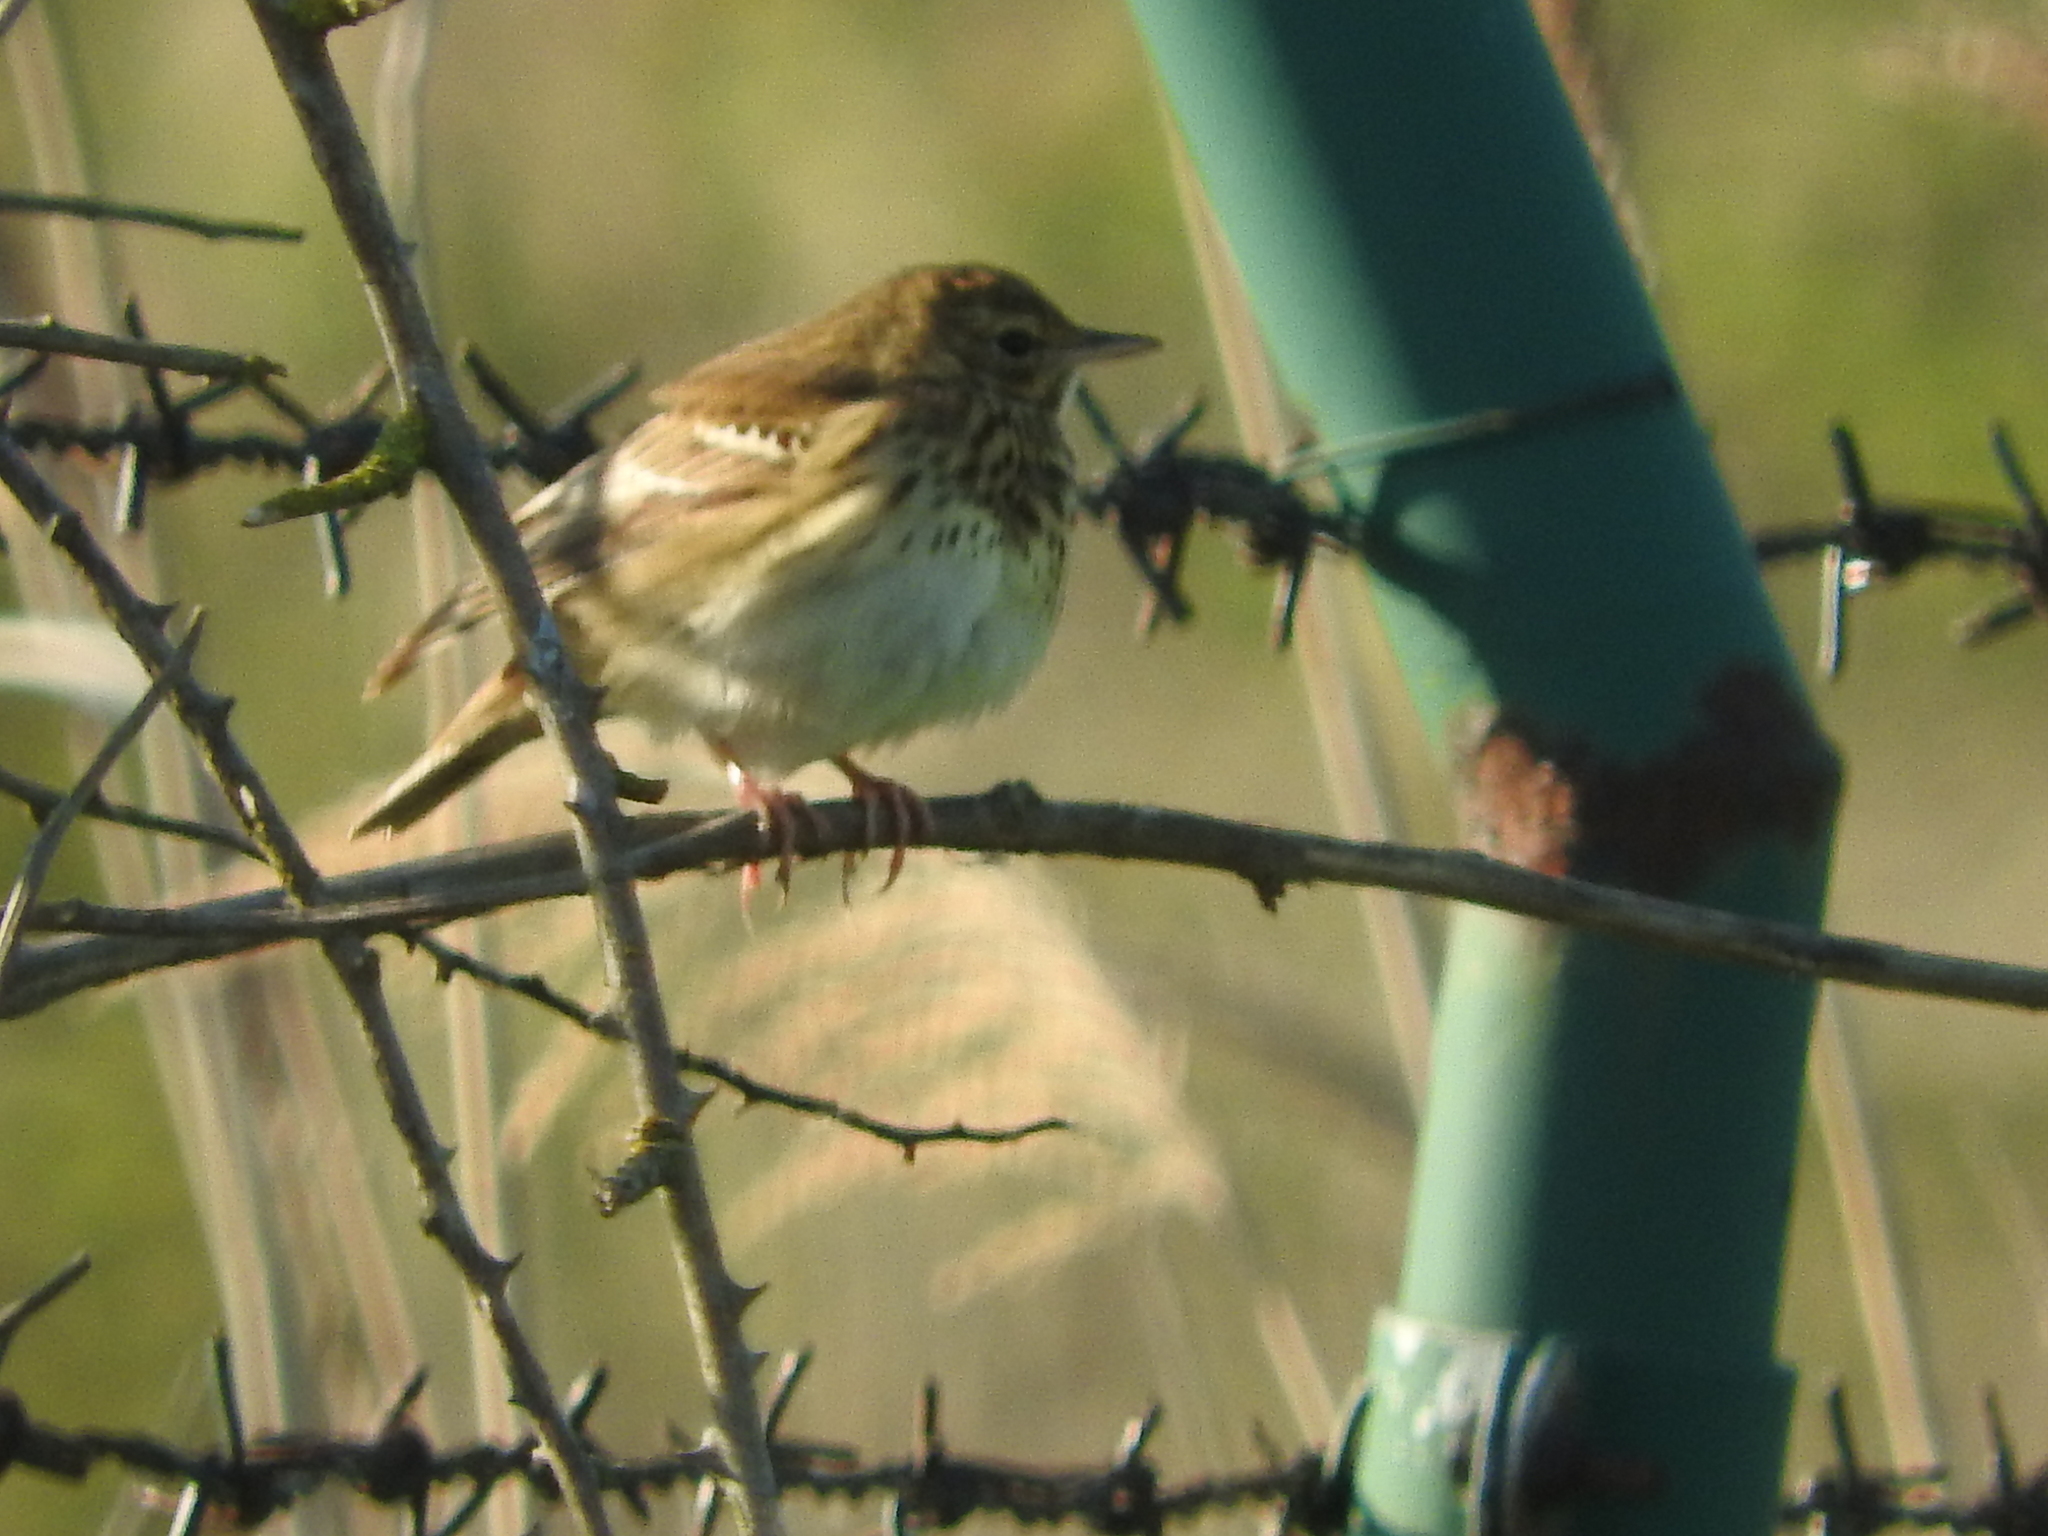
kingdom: Animalia
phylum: Chordata
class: Aves
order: Passeriformes
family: Motacillidae
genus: Anthus
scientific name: Anthus trivialis
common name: Tree pipit
